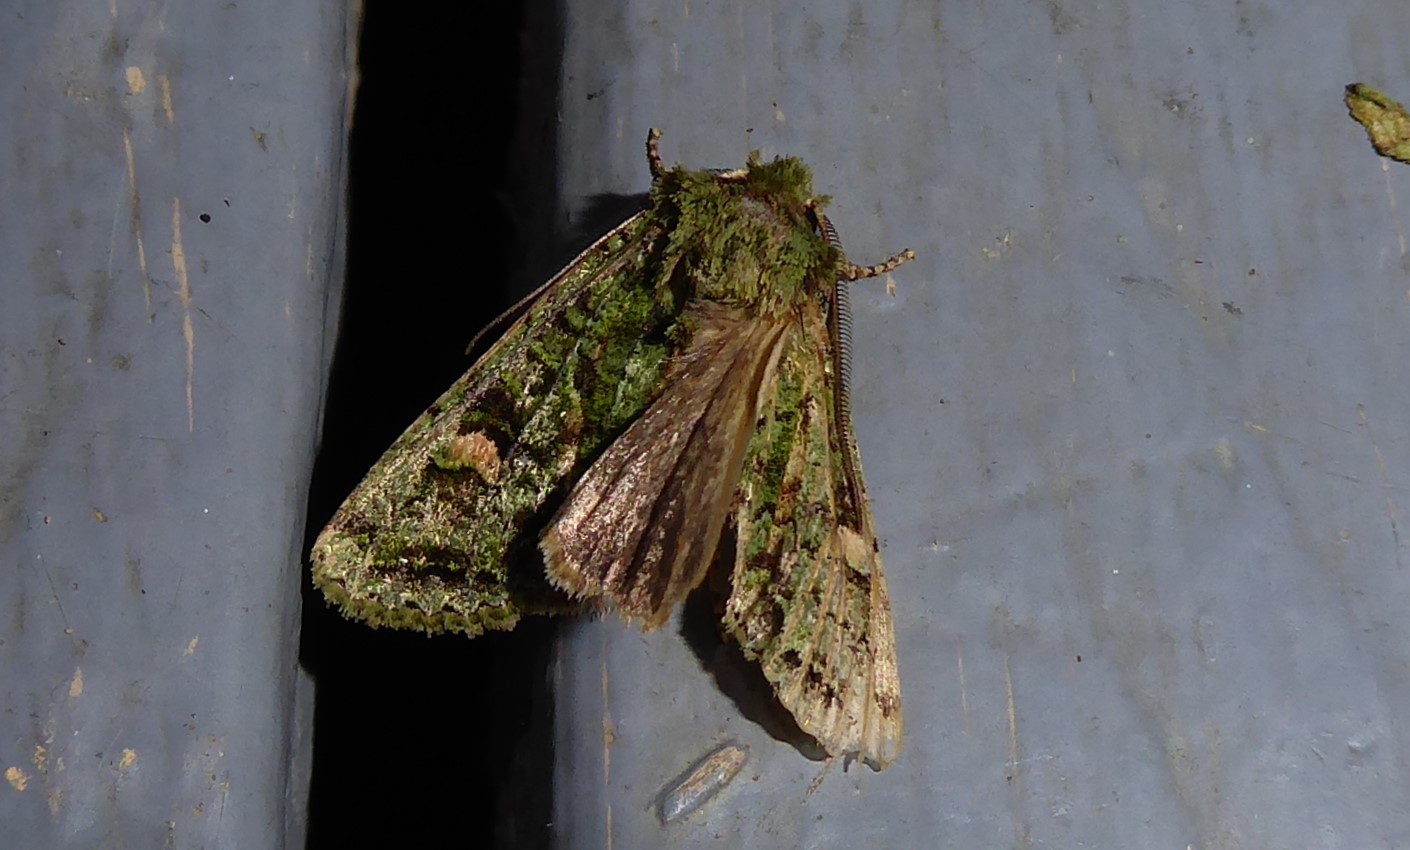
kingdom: Animalia
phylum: Arthropoda
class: Insecta
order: Lepidoptera
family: Noctuidae
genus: Ichneutica
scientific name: Ichneutica
